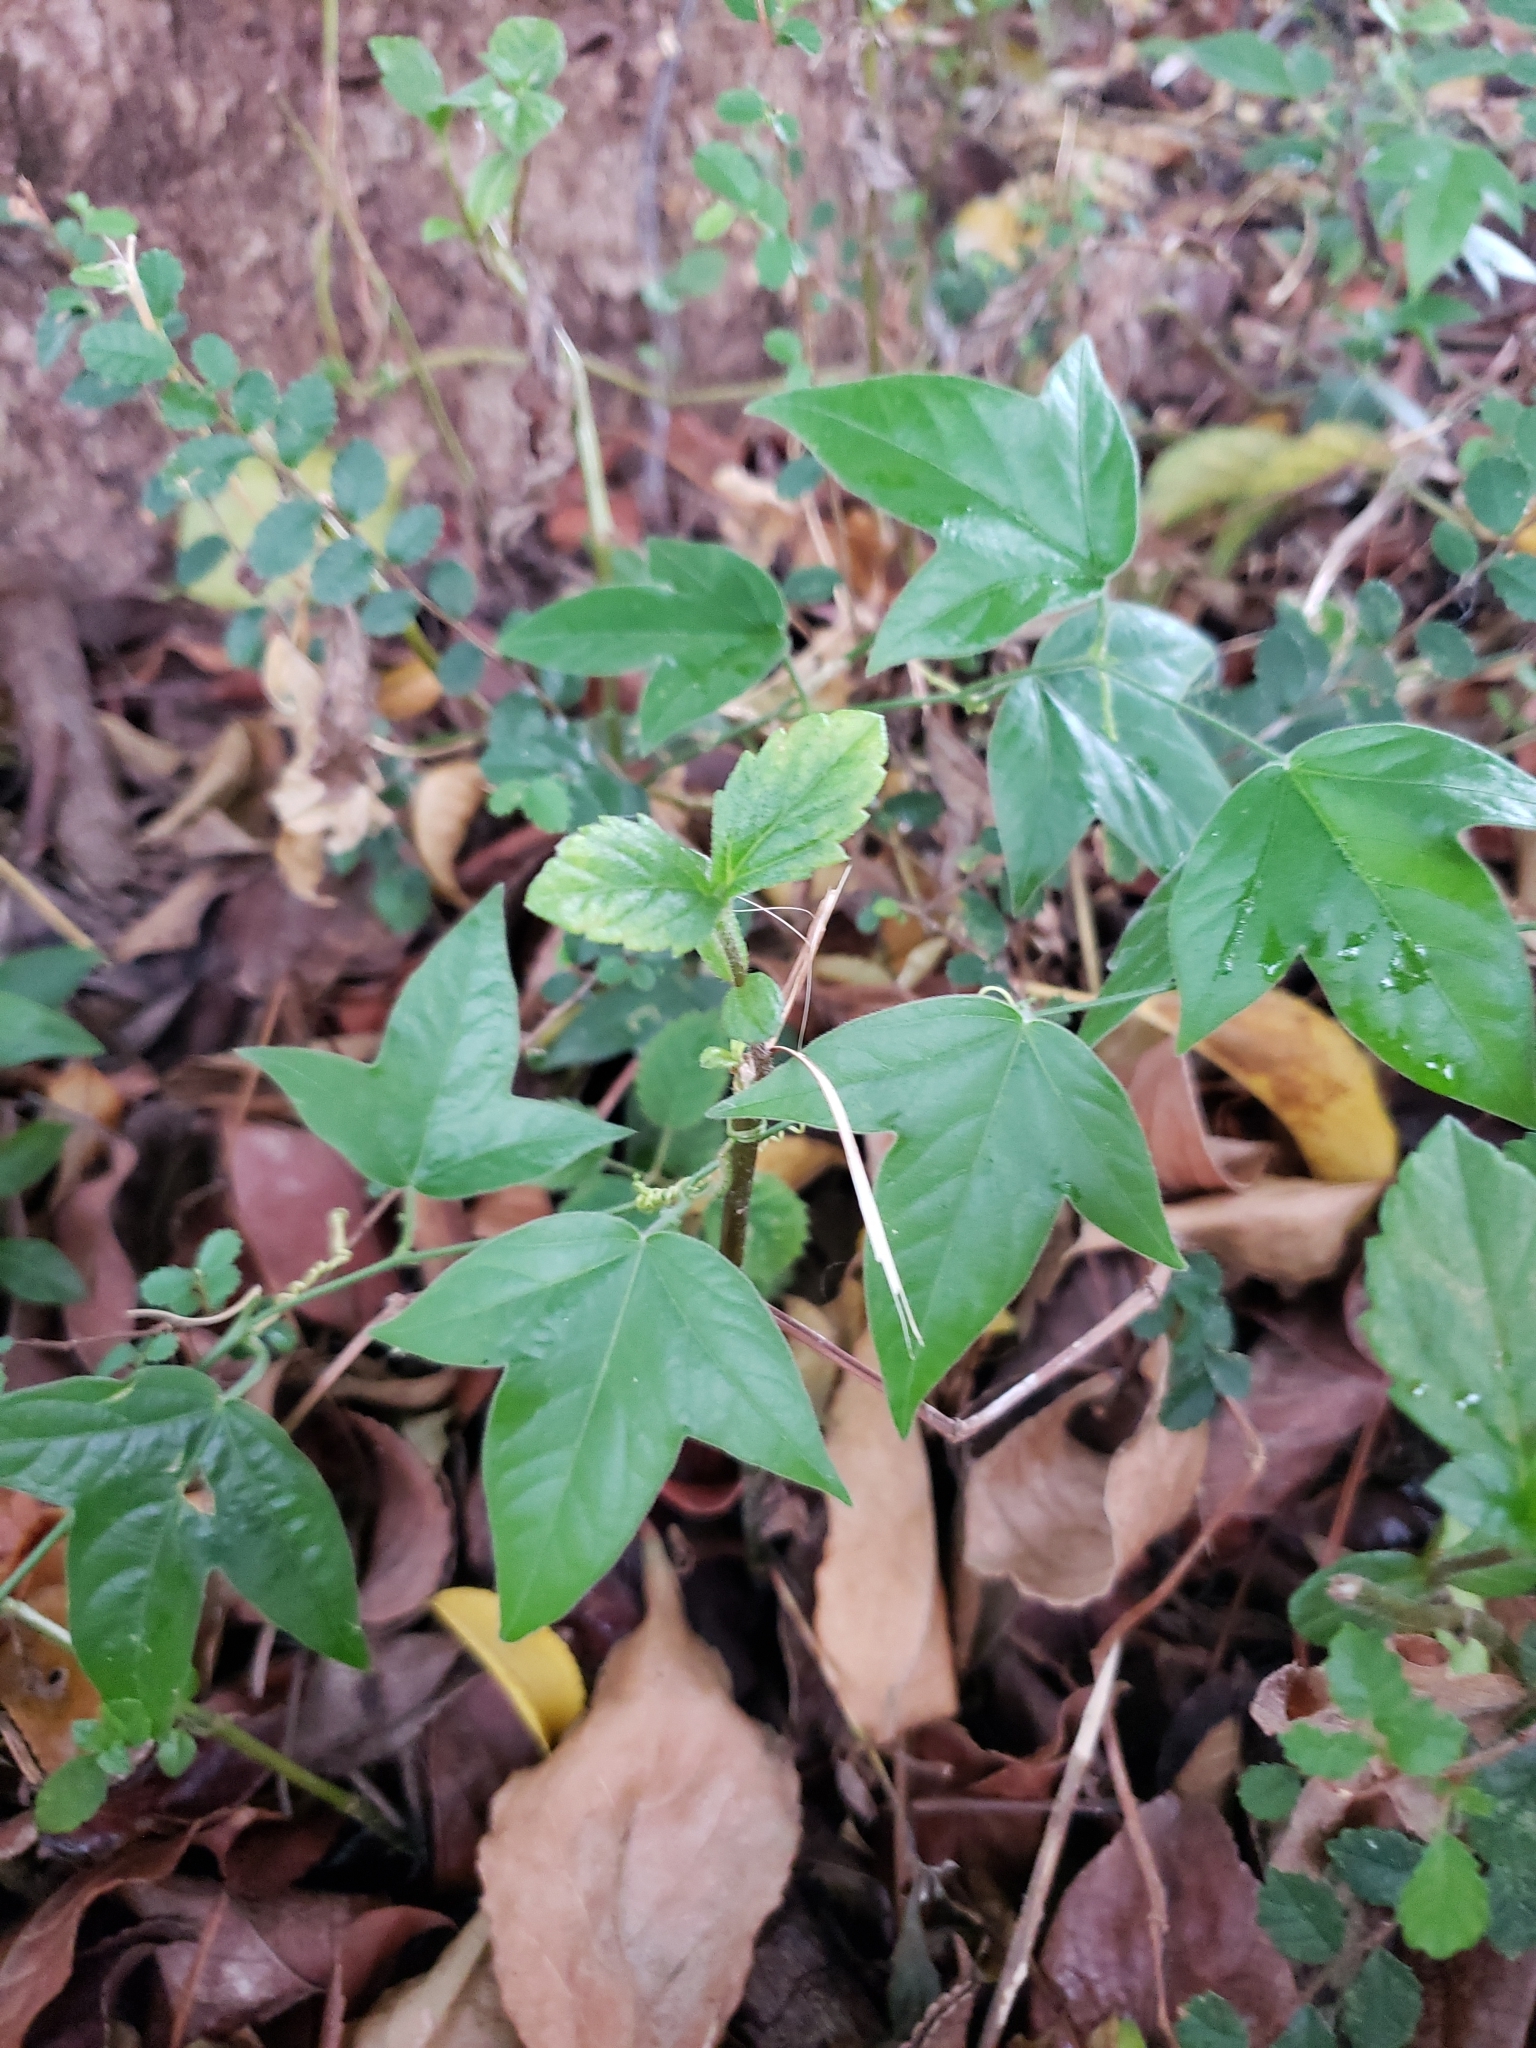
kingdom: Plantae
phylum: Tracheophyta
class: Magnoliopsida
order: Malpighiales
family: Passifloraceae
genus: Passiflora
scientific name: Passiflora suberosa
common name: Wild passionfruit
